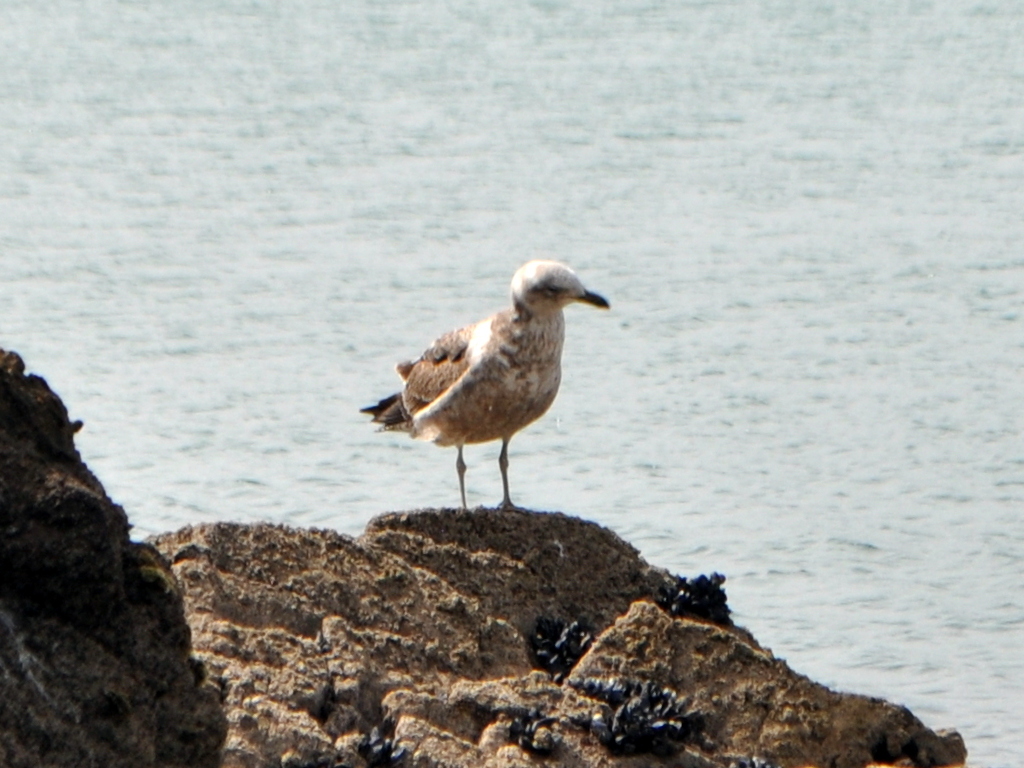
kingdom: Animalia
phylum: Chordata
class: Aves
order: Charadriiformes
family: Laridae
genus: Larus
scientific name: Larus dominicanus
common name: Kelp gull
